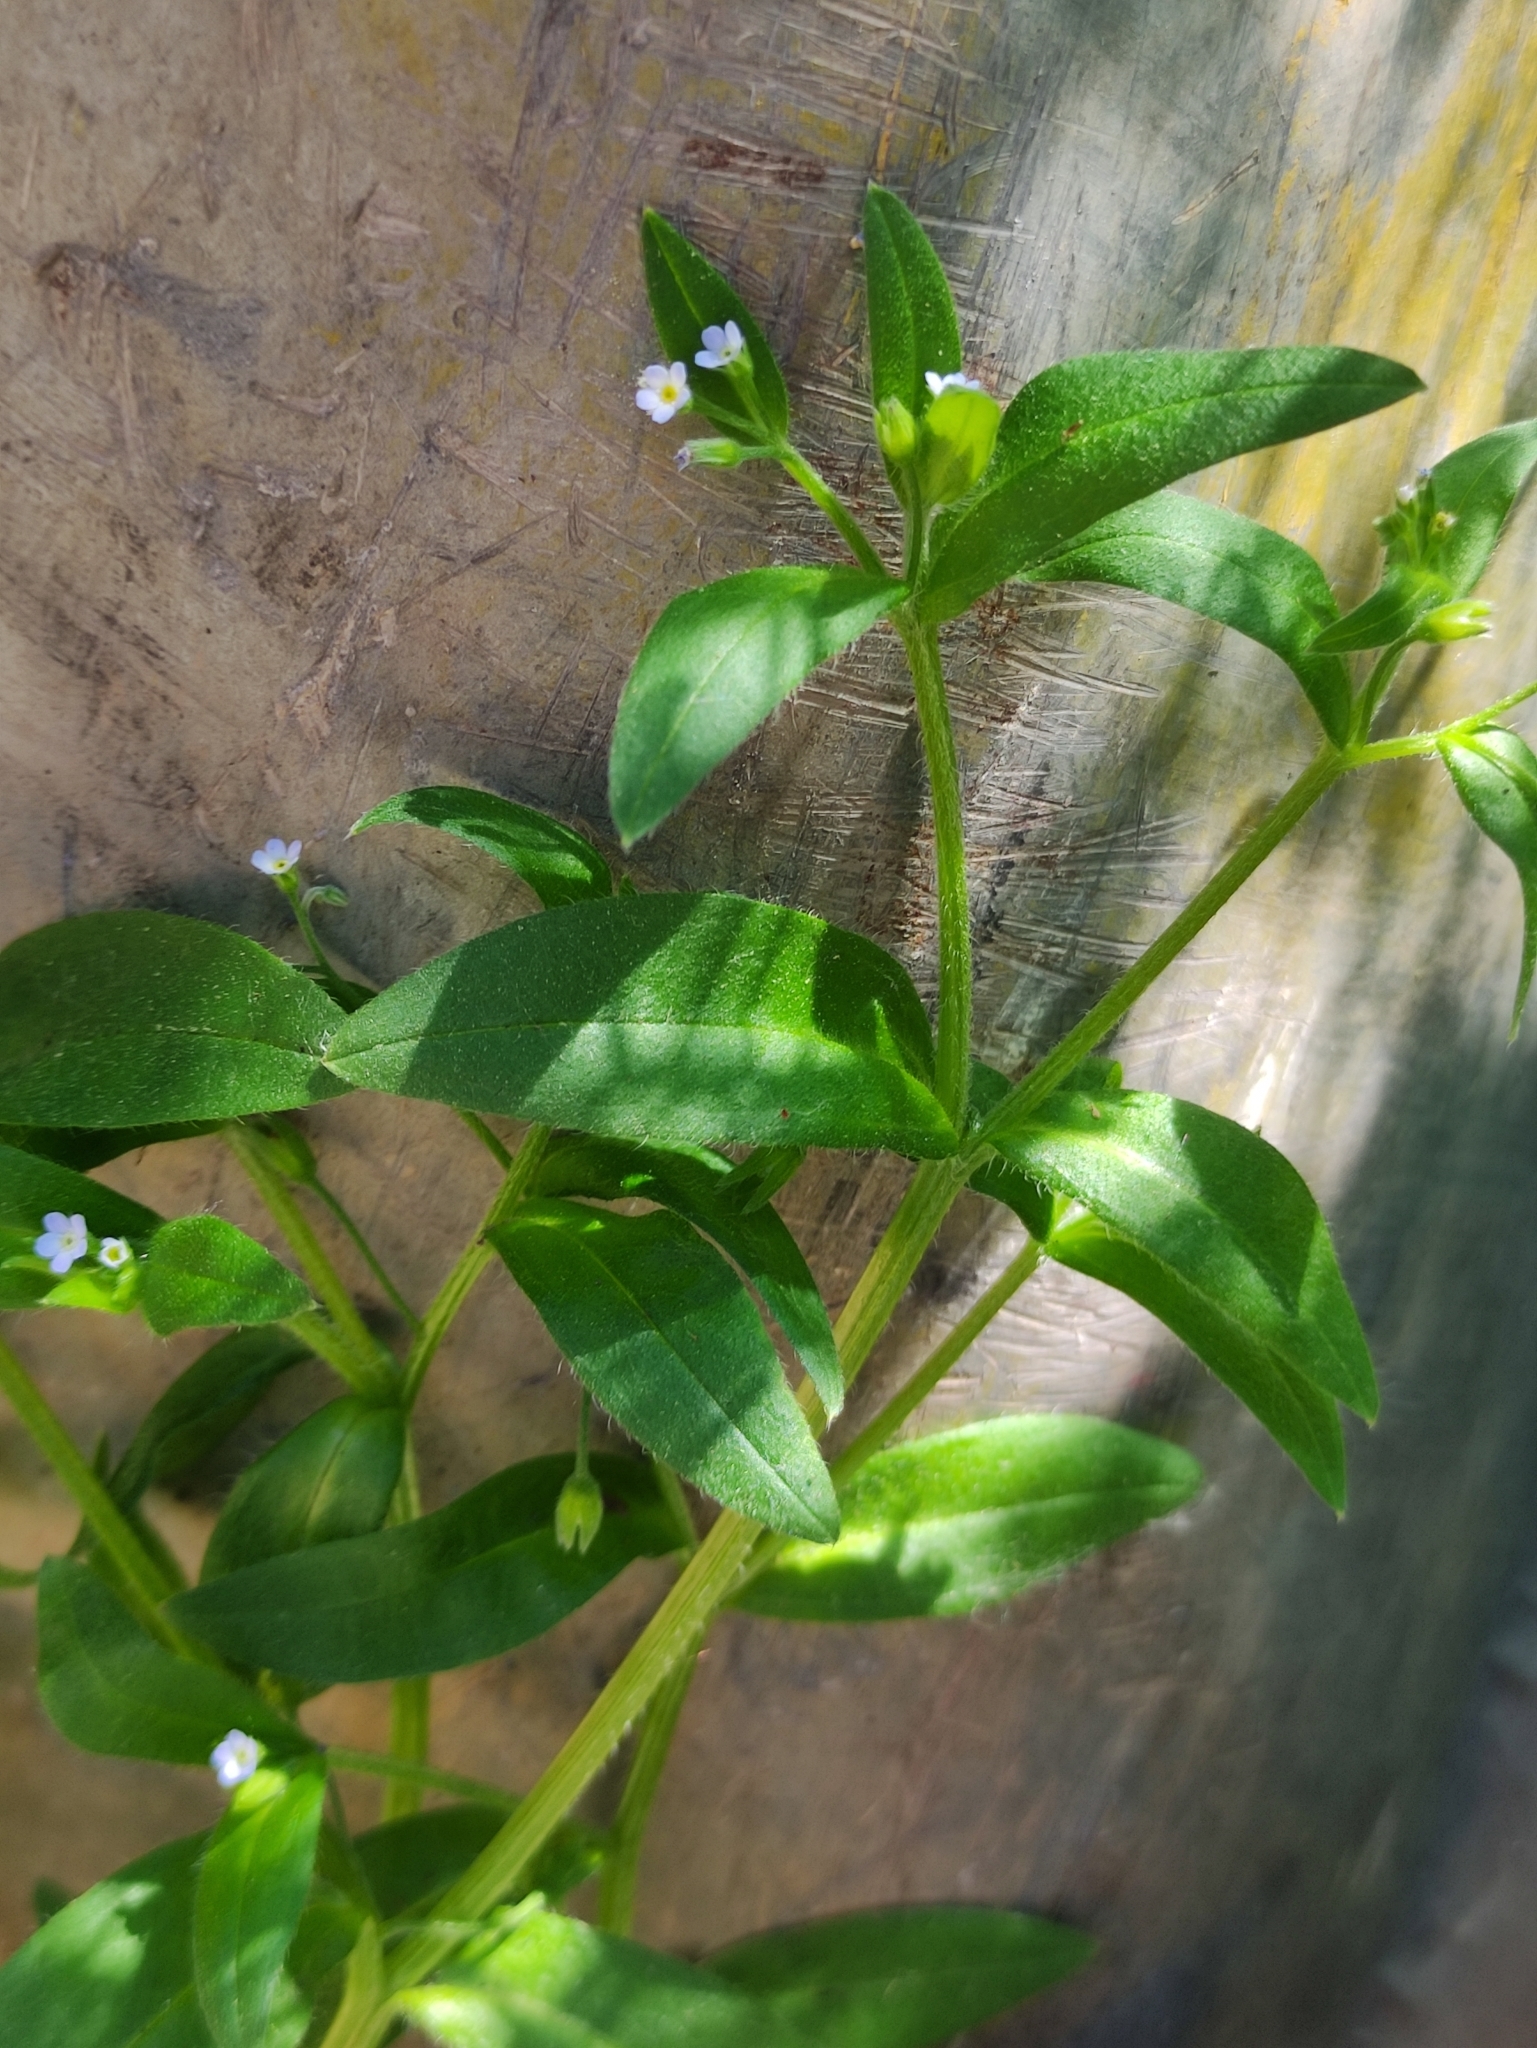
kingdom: Plantae
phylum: Tracheophyta
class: Magnoliopsida
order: Boraginales
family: Boraginaceae
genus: Myosotis
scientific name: Myosotis sparsiflora
